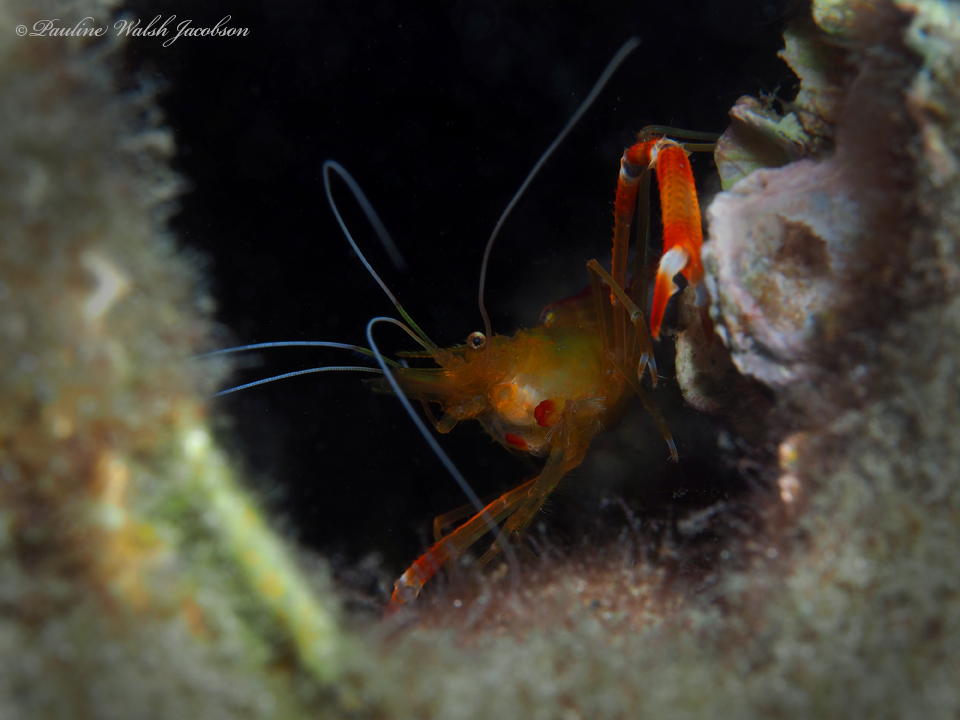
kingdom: Animalia
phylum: Arthropoda
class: Malacostraca
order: Decapoda
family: Stenopodidae
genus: Stenopus
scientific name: Stenopus scutellatus
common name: Golden coral shrimp
